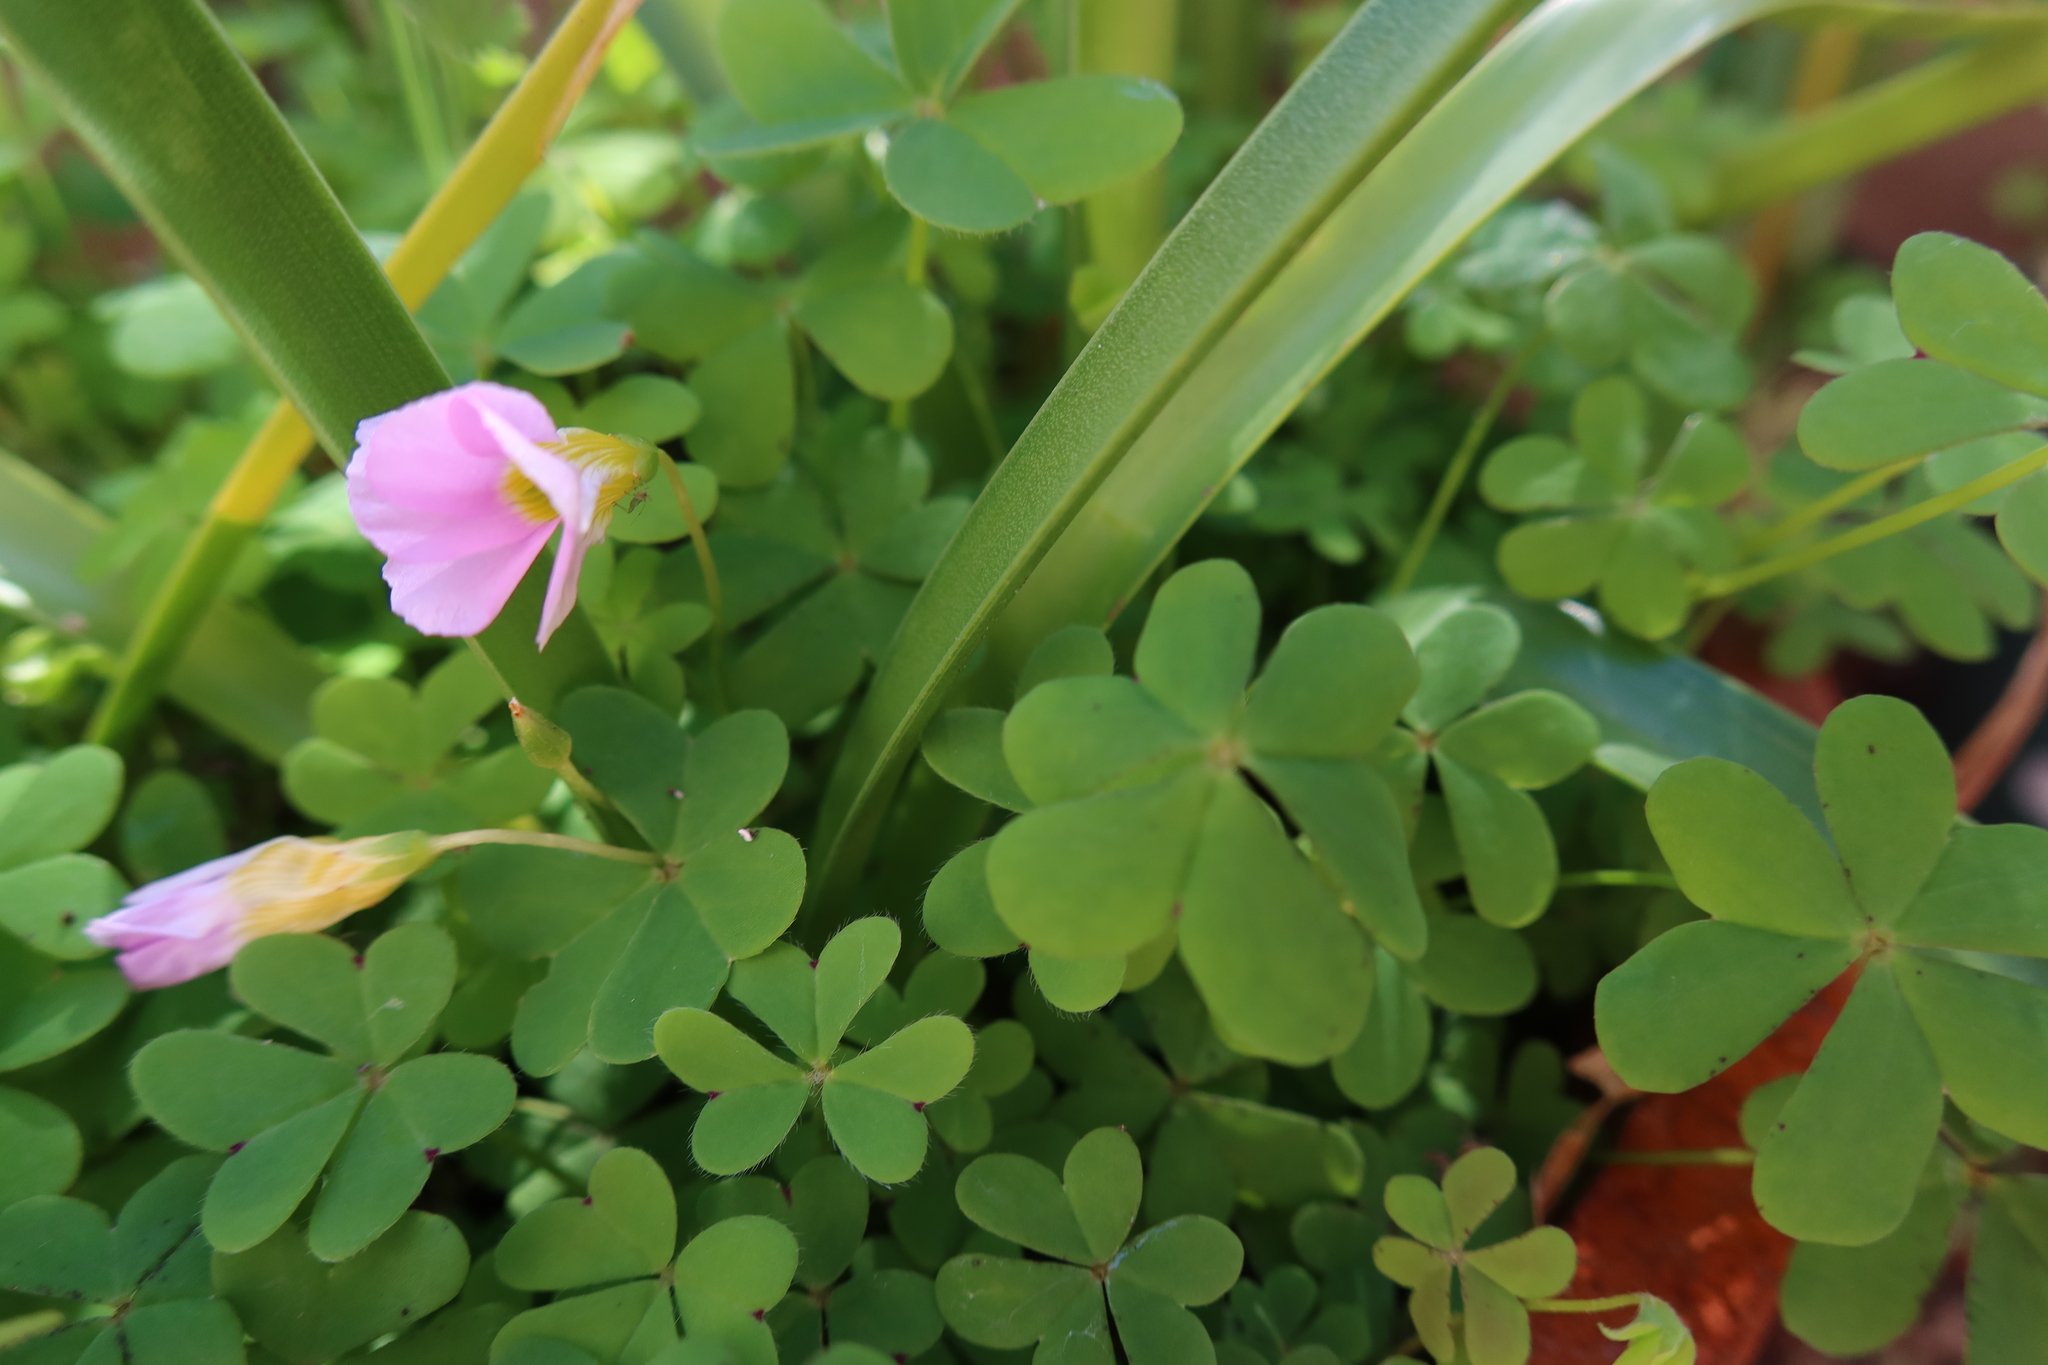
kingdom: Plantae
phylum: Tracheophyta
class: Magnoliopsida
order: Oxalidales
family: Oxalidaceae
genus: Oxalis
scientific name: Oxalis caprina
